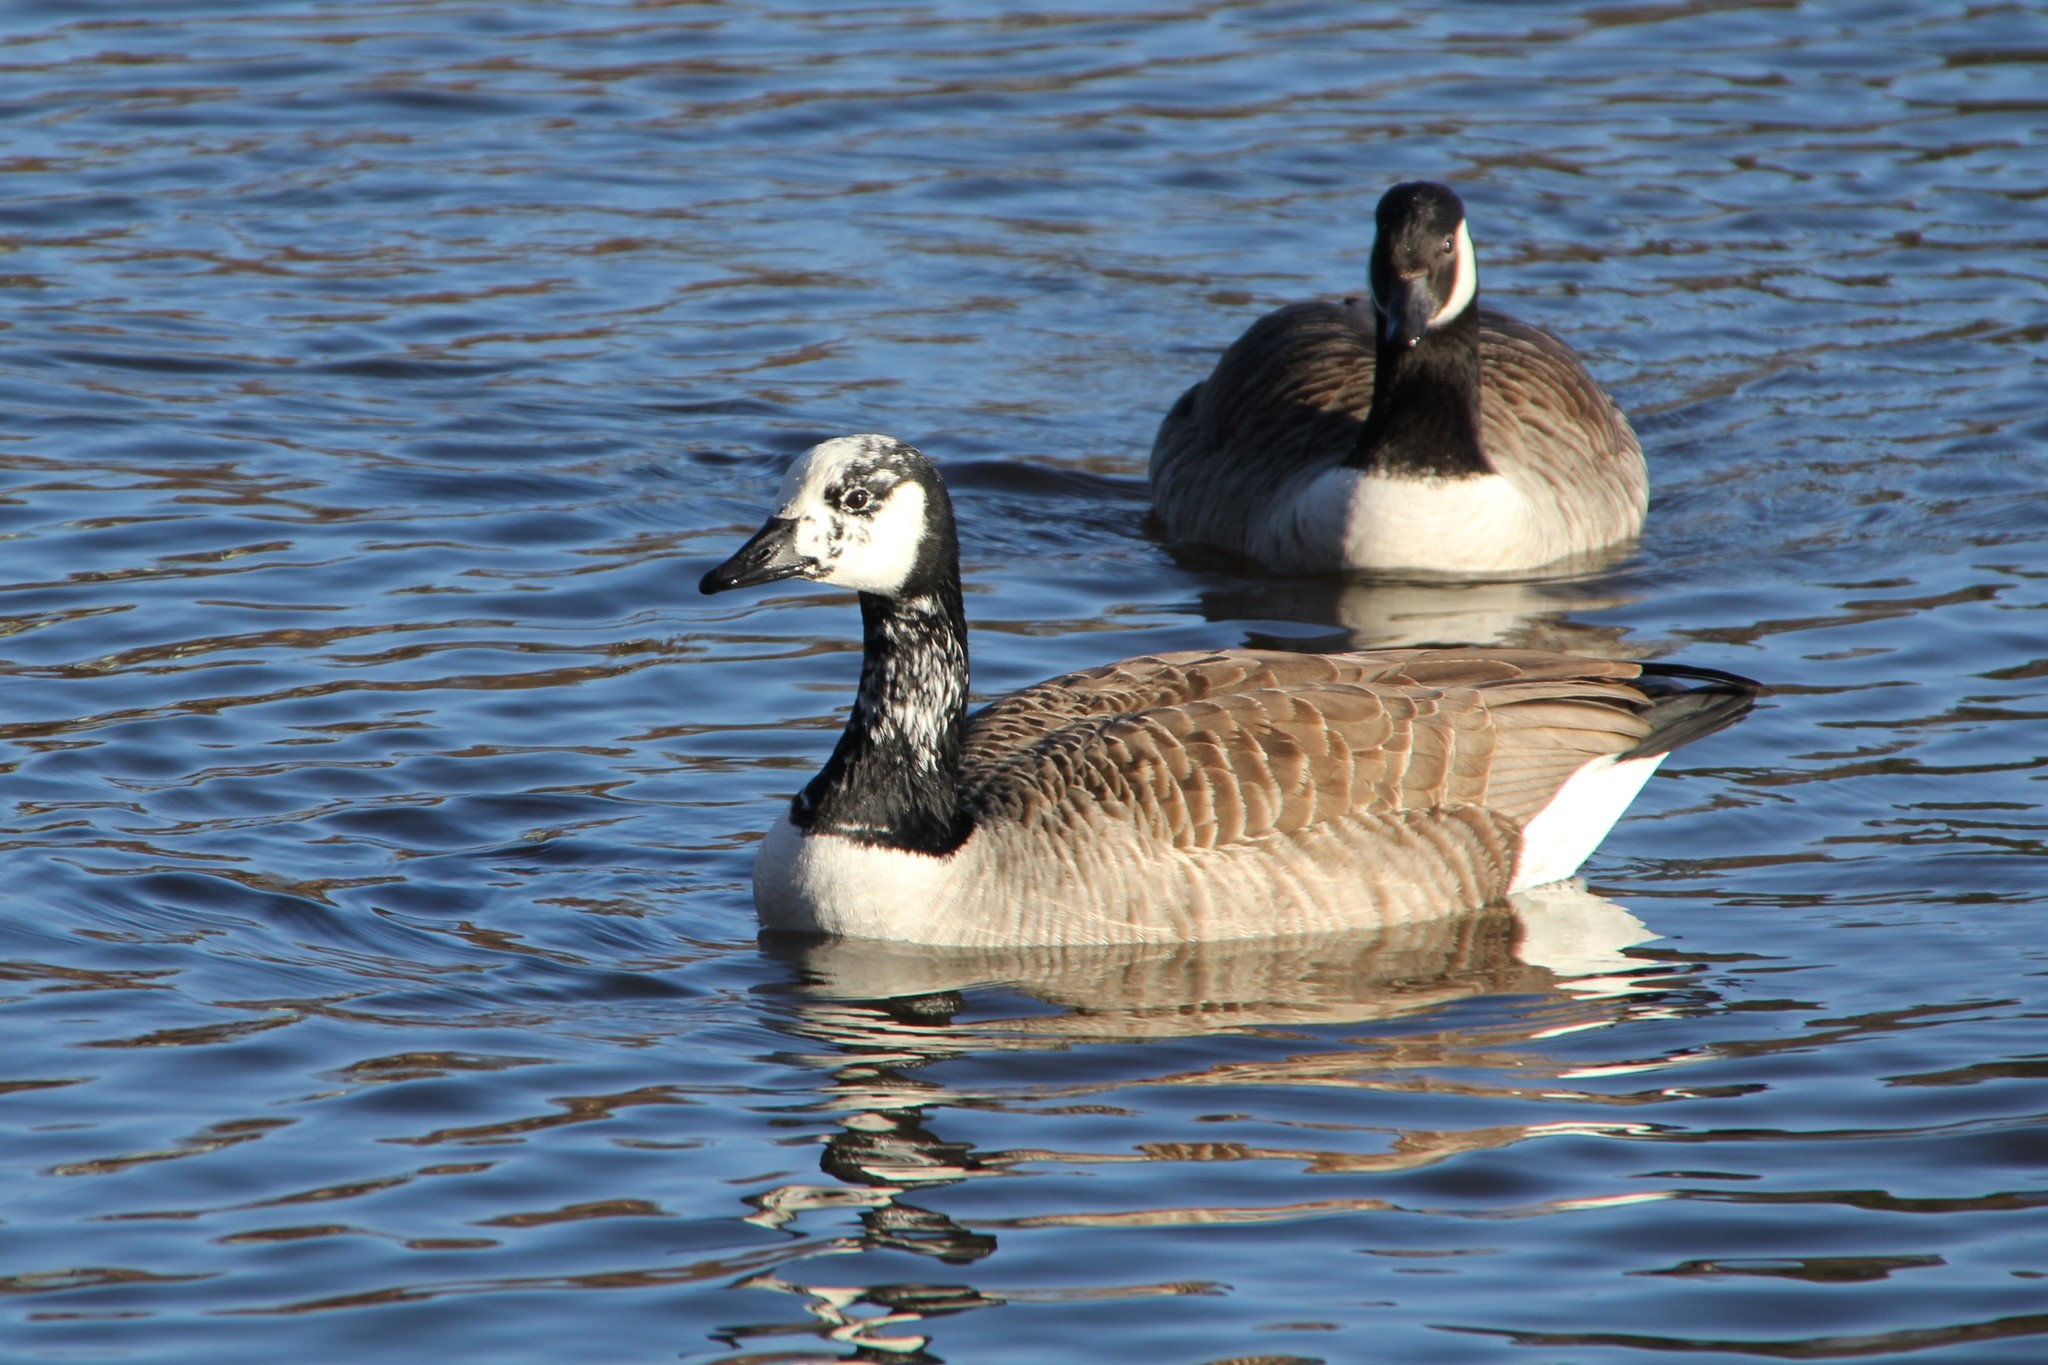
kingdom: Animalia
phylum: Chordata
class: Aves
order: Anseriformes
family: Anatidae
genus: Branta
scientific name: Branta canadensis
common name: Canada goose
